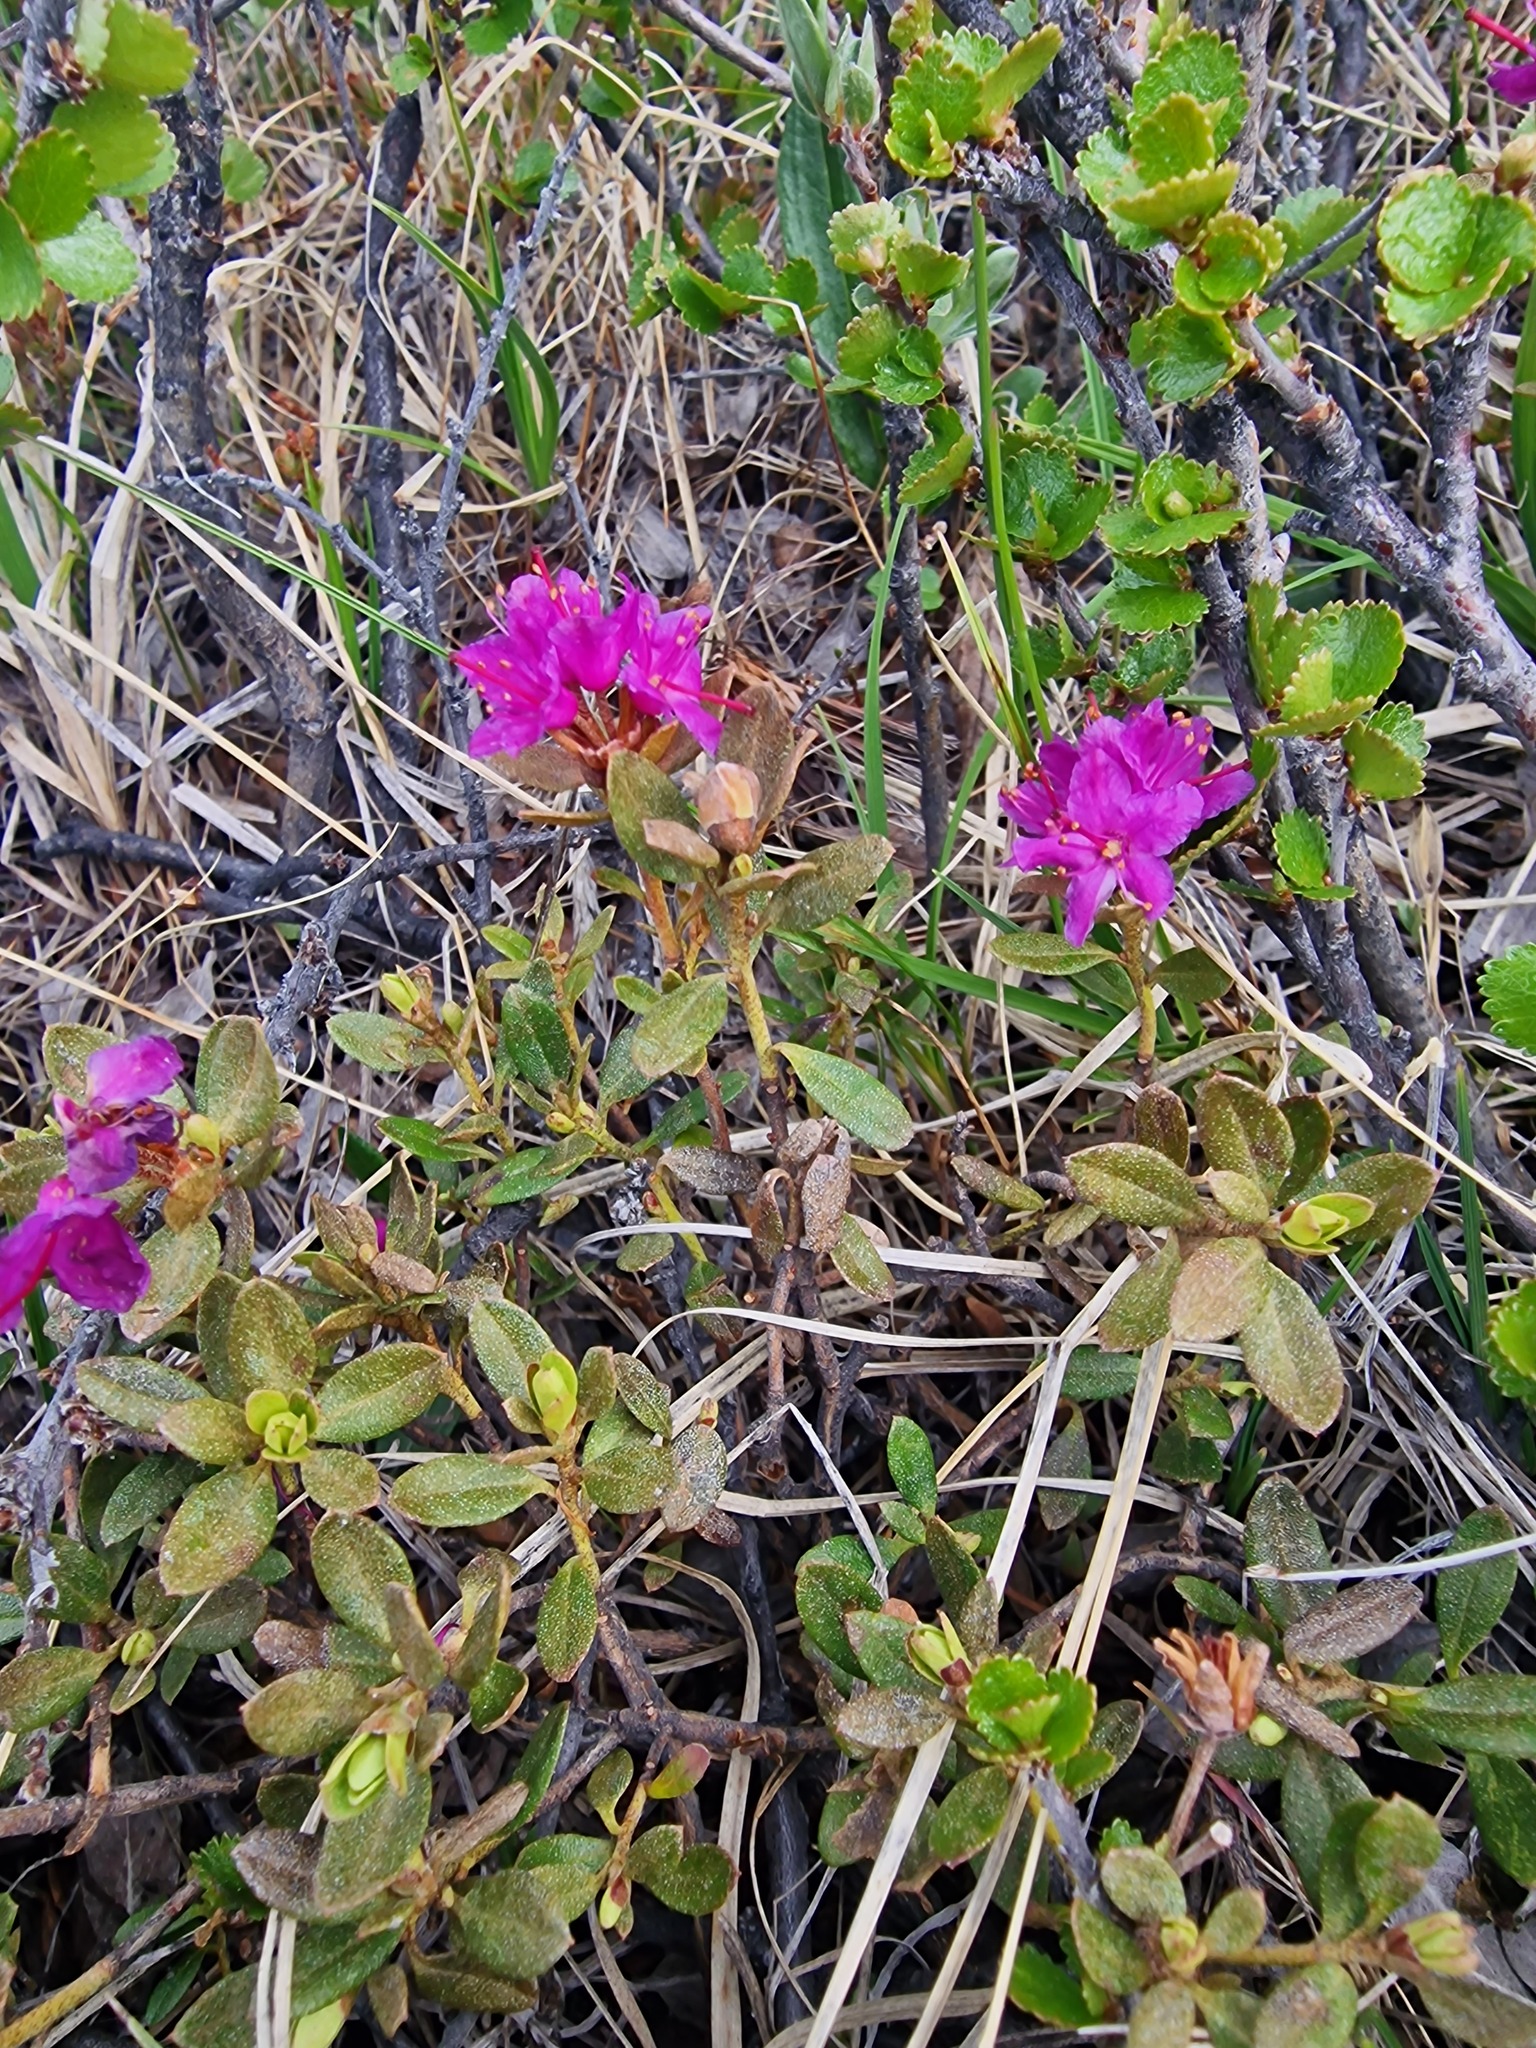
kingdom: Plantae
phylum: Tracheophyta
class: Magnoliopsida
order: Ericales
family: Ericaceae
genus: Rhododendron
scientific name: Rhododendron lapponicum
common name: Lapland rhododendron
